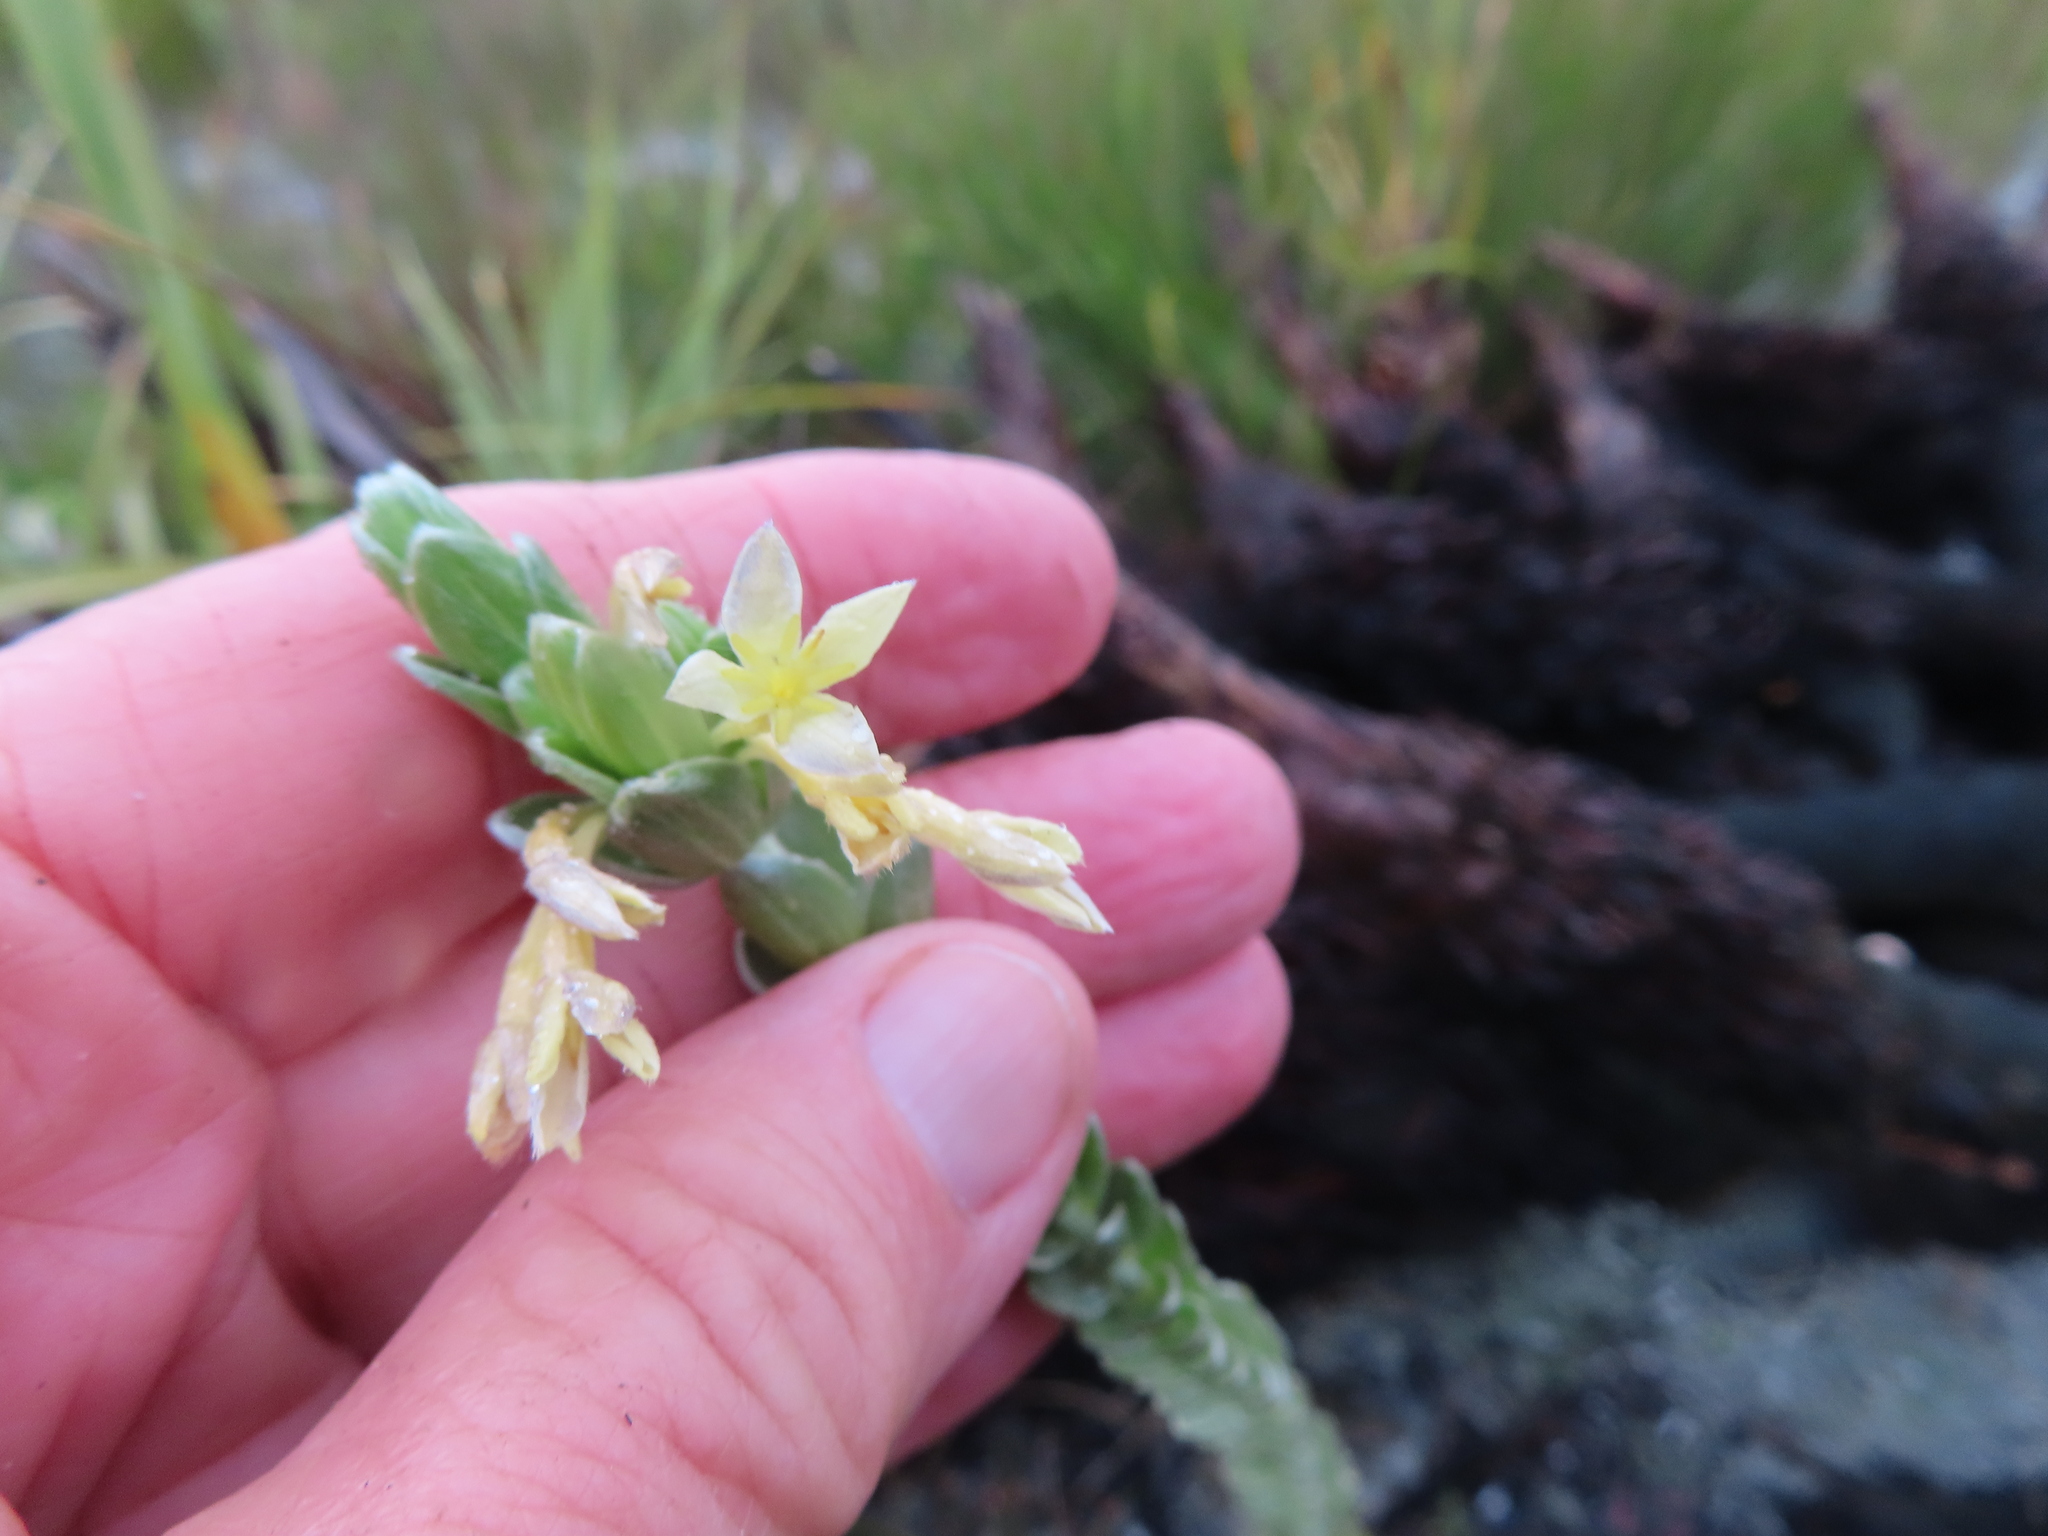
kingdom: Plantae
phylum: Tracheophyta
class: Magnoliopsida
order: Malvales
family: Thymelaeaceae
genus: Gnidia
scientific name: Gnidia anomala
